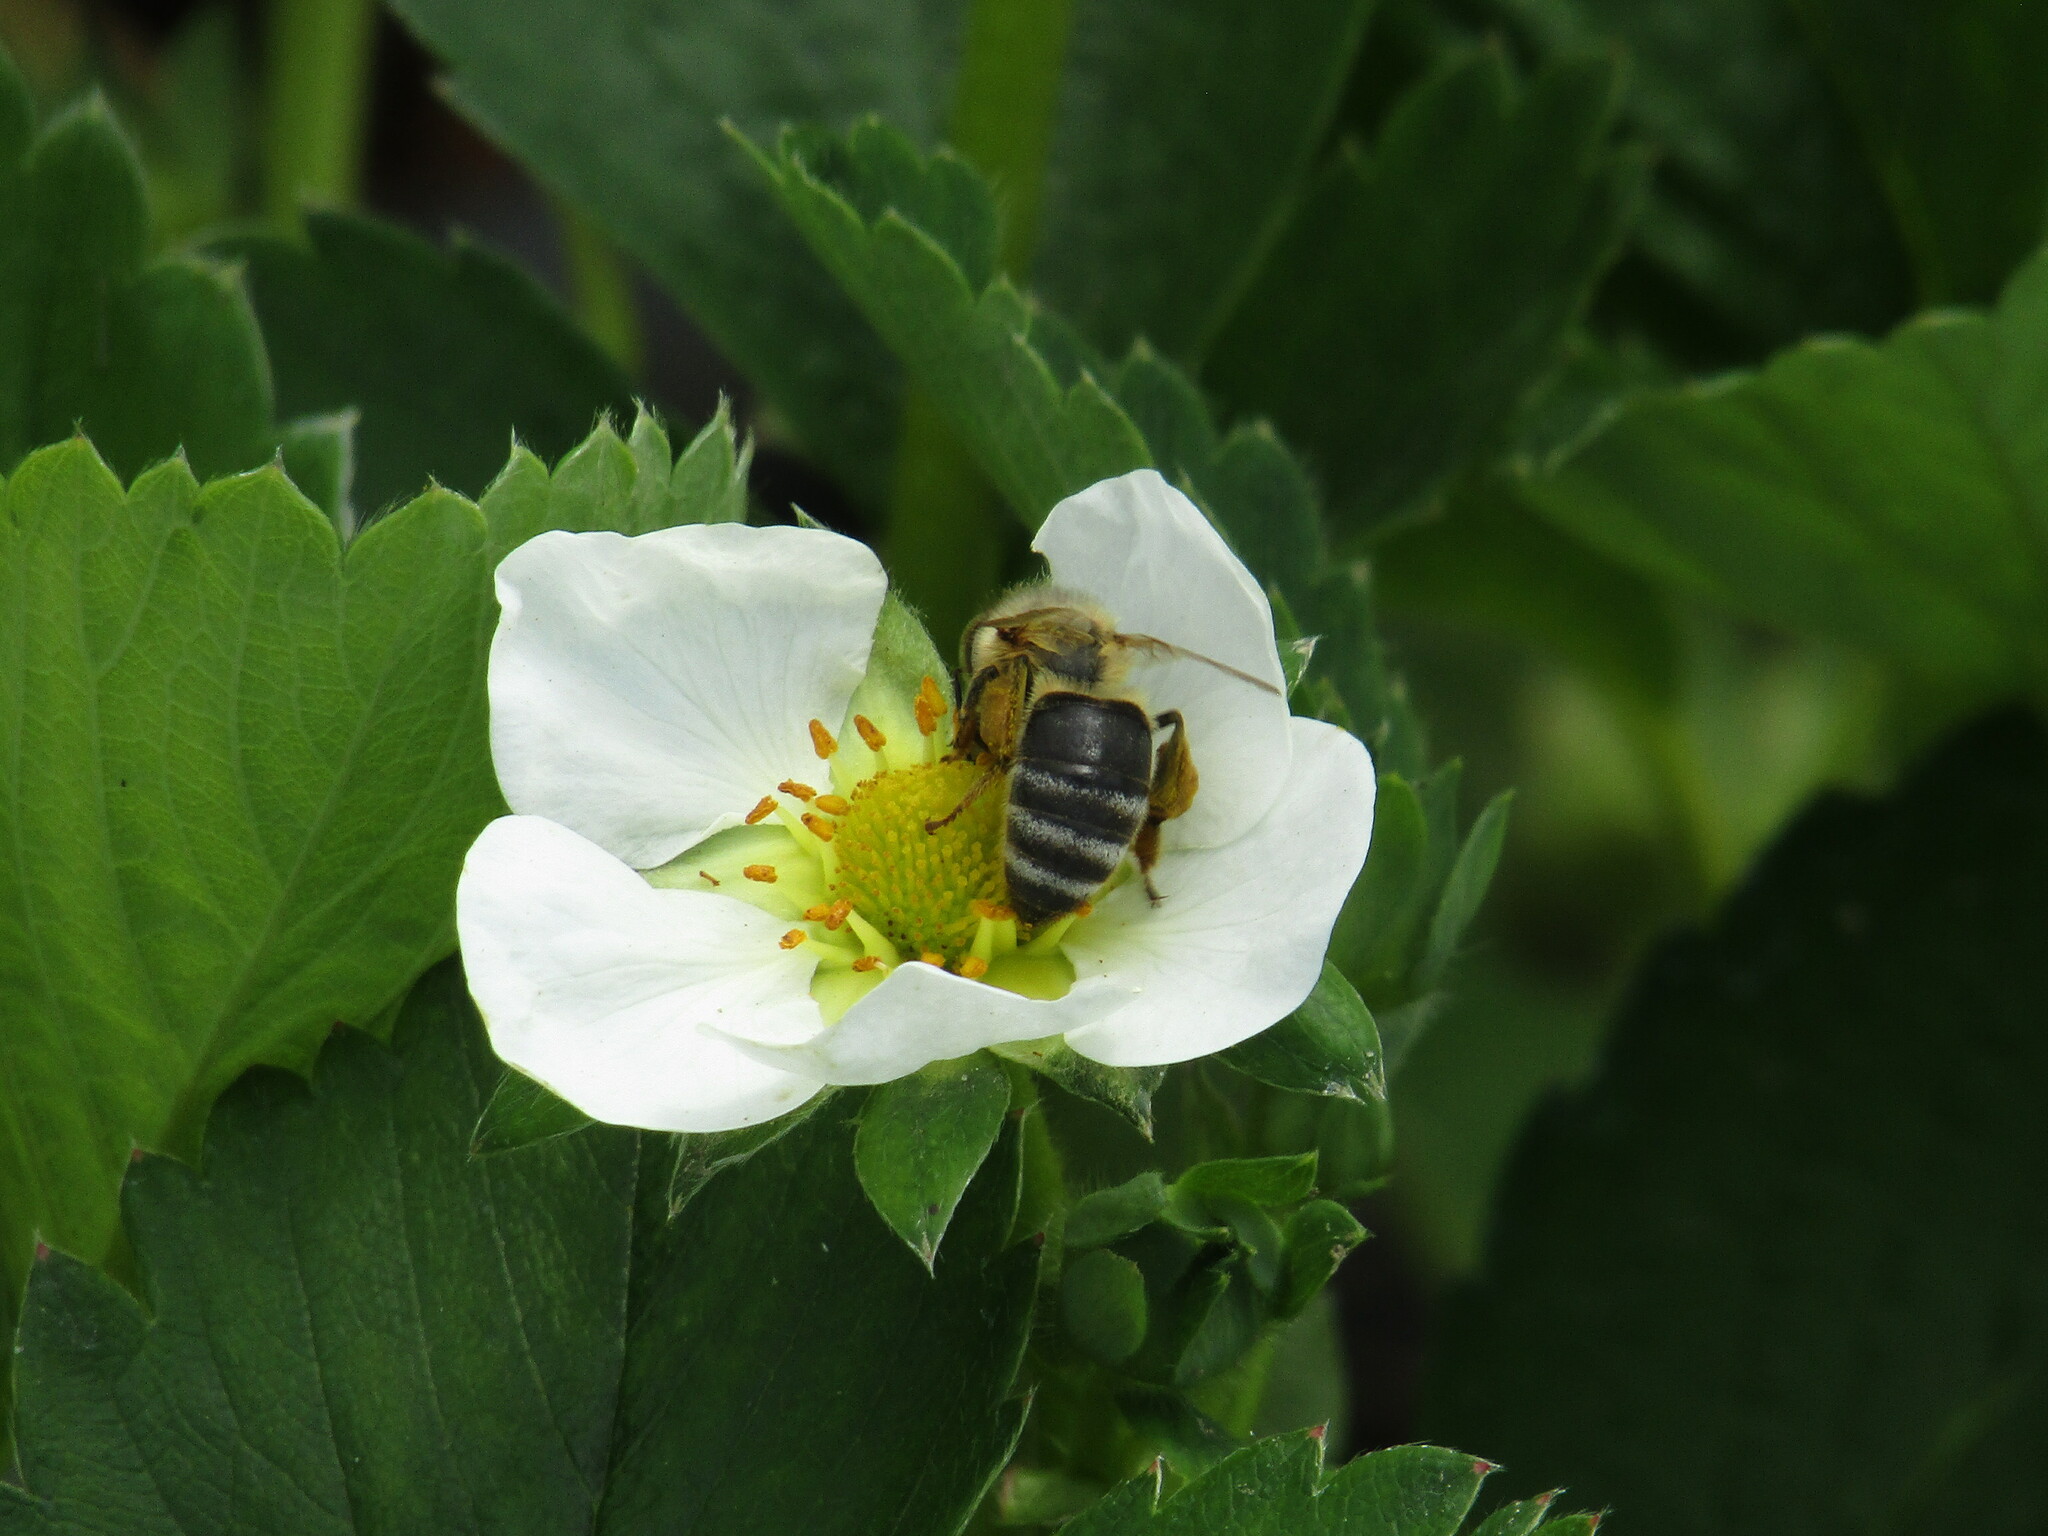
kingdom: Animalia
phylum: Arthropoda
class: Insecta
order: Hymenoptera
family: Apidae
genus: Apis
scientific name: Apis mellifera
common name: Honey bee
